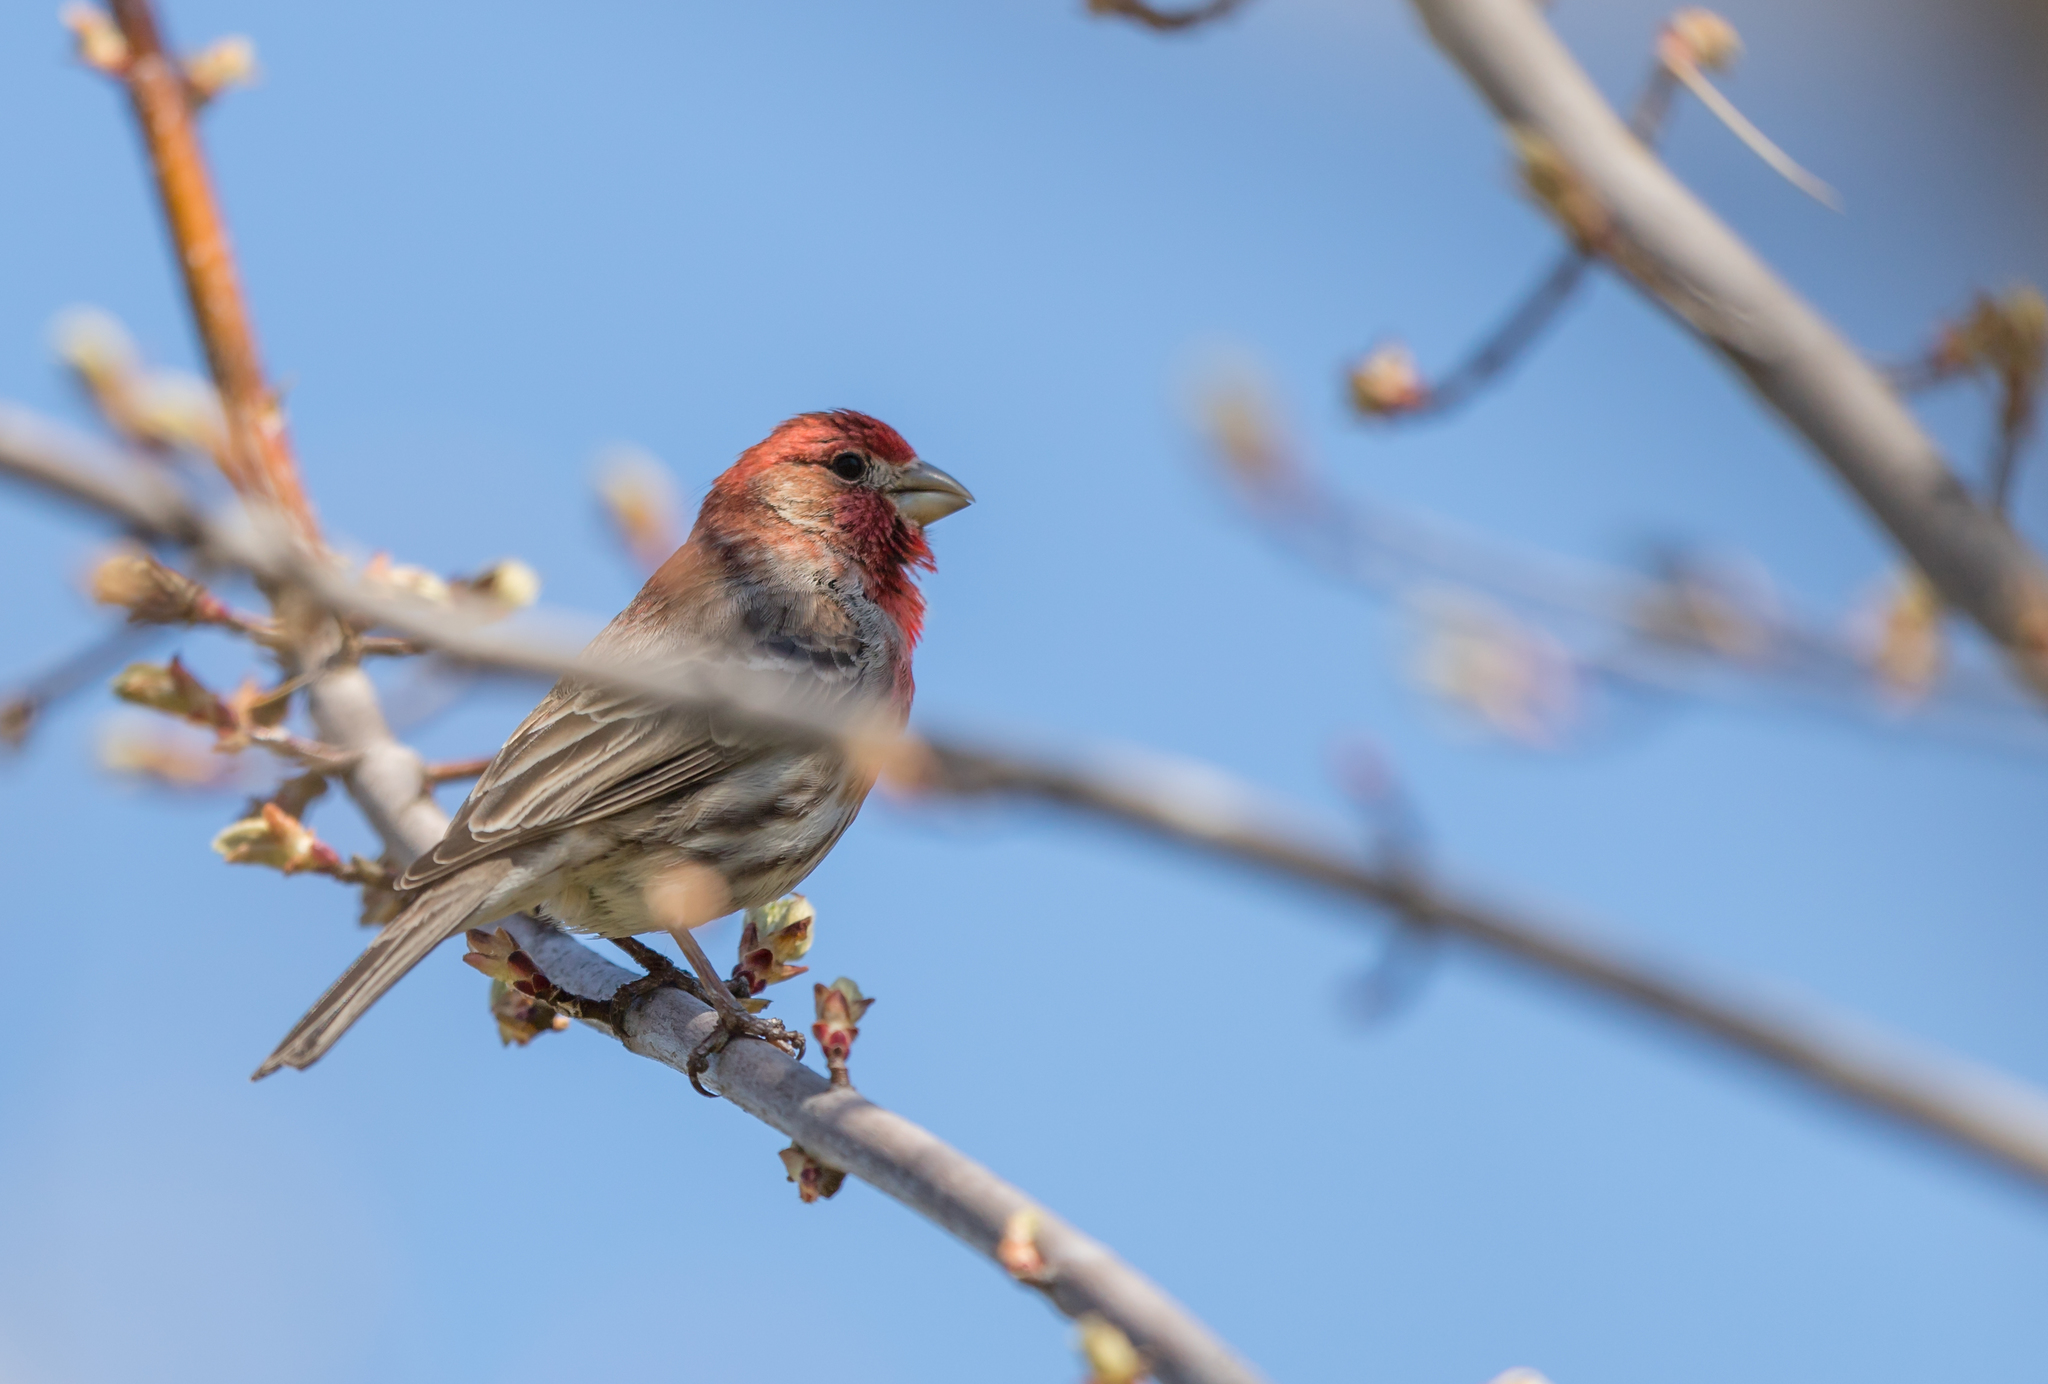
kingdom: Animalia
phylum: Chordata
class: Aves
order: Passeriformes
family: Fringillidae
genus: Haemorhous
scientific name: Haemorhous mexicanus
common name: House finch
